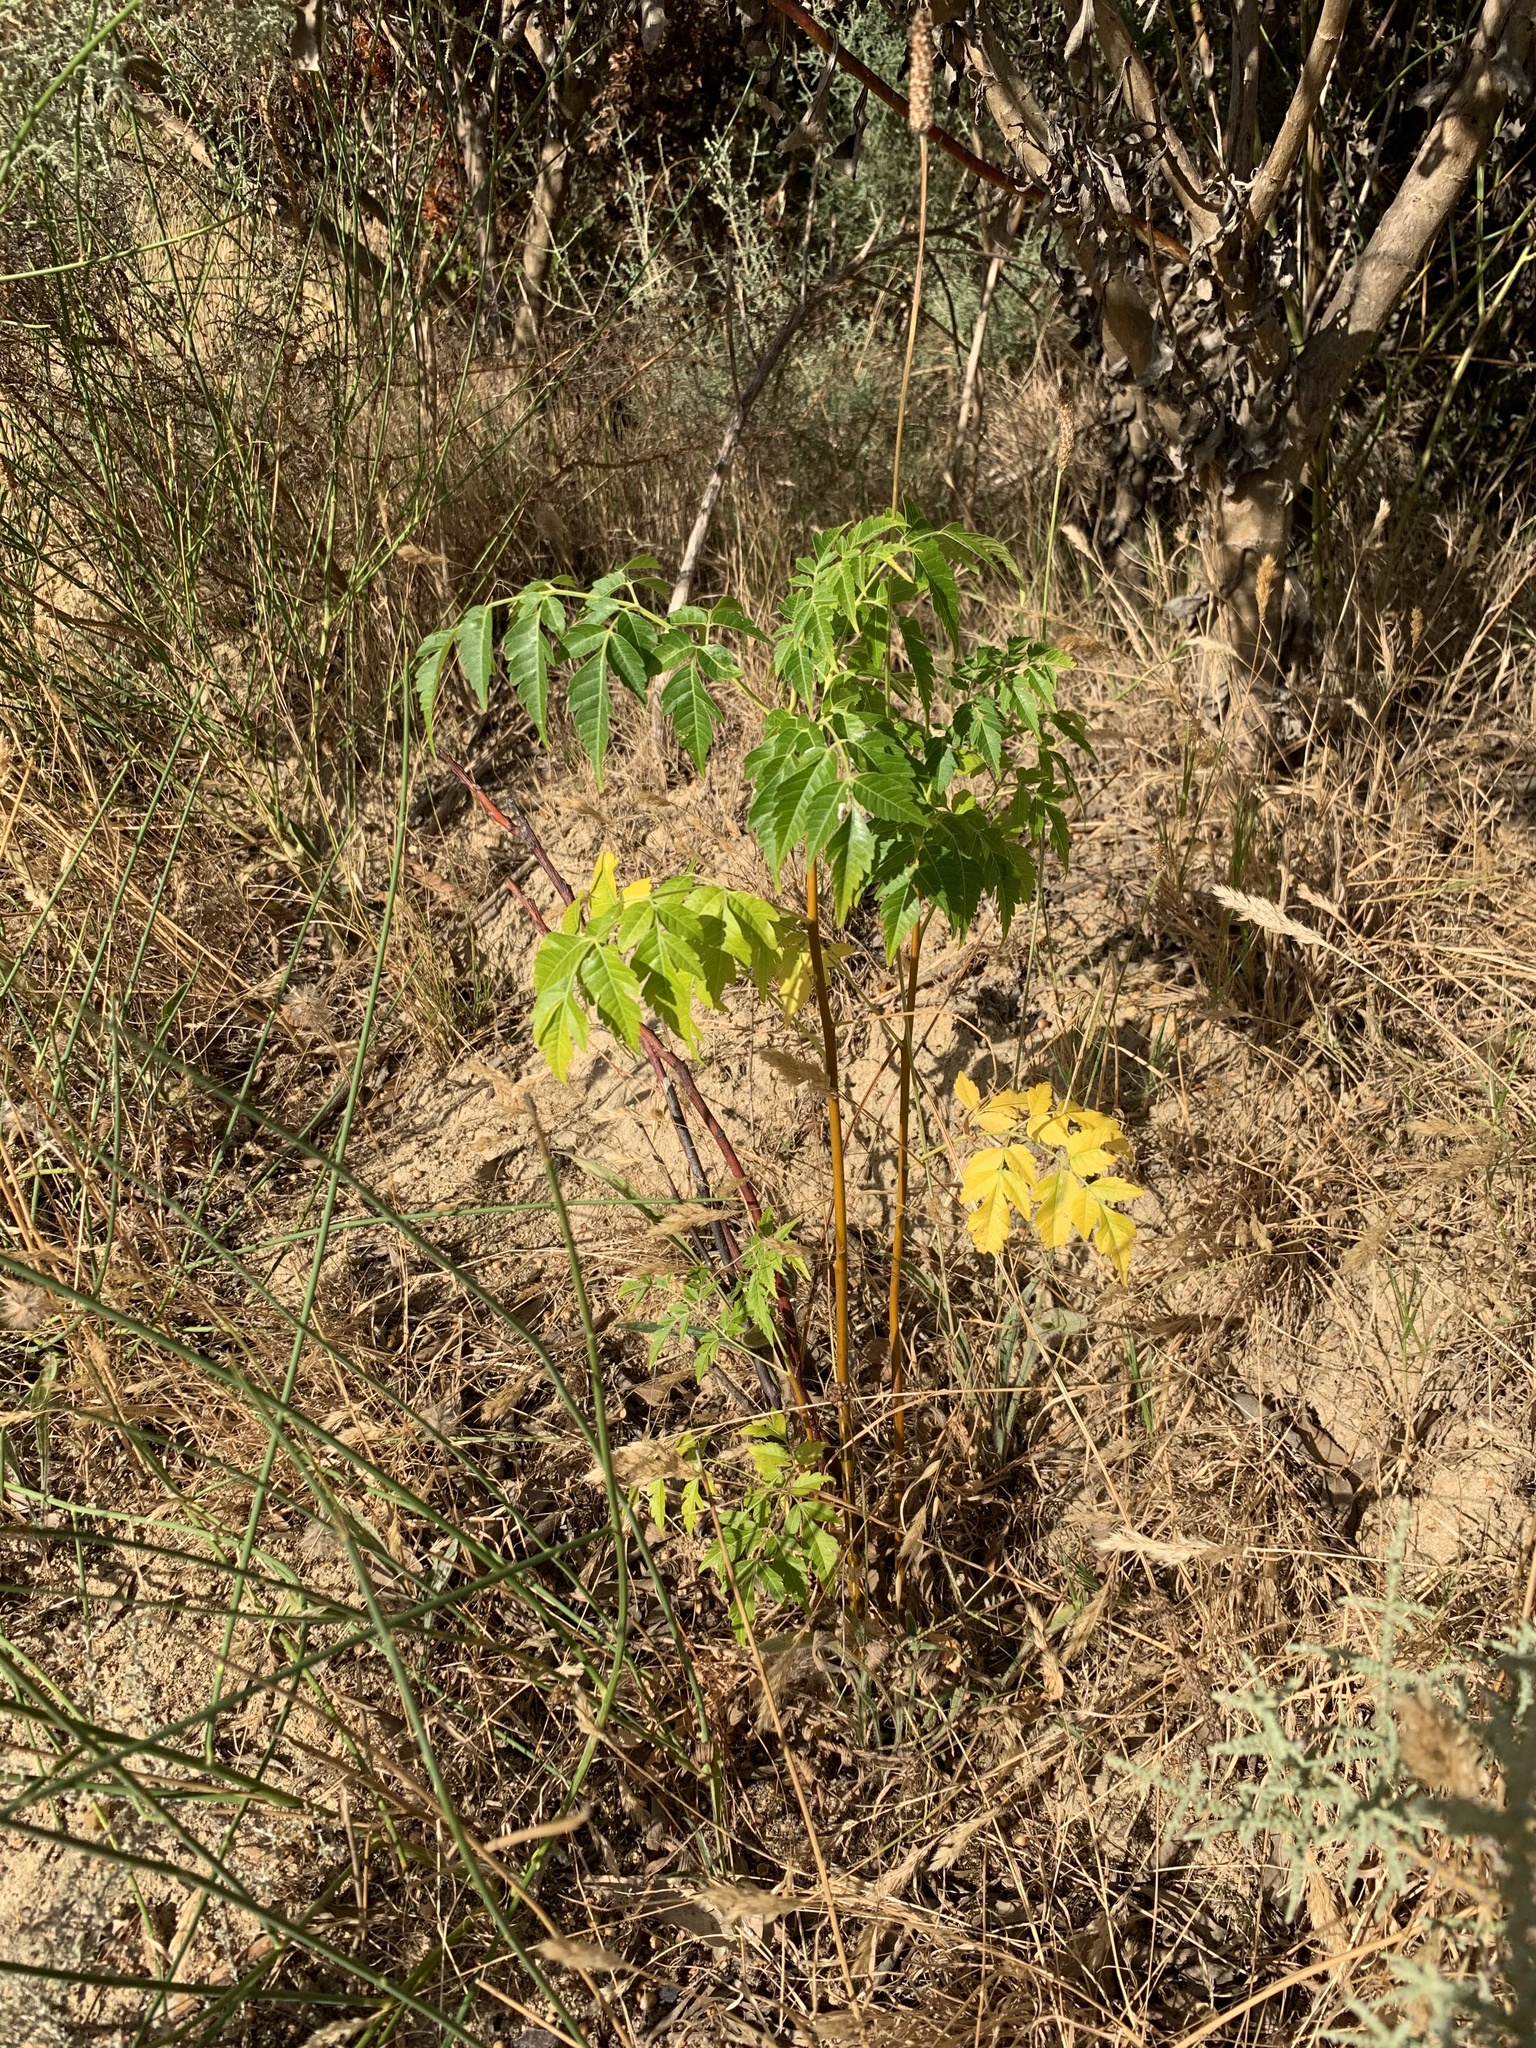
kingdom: Plantae
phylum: Tracheophyta
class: Magnoliopsida
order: Sapindales
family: Meliaceae
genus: Melia
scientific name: Melia azedarach
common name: Chinaberrytree
